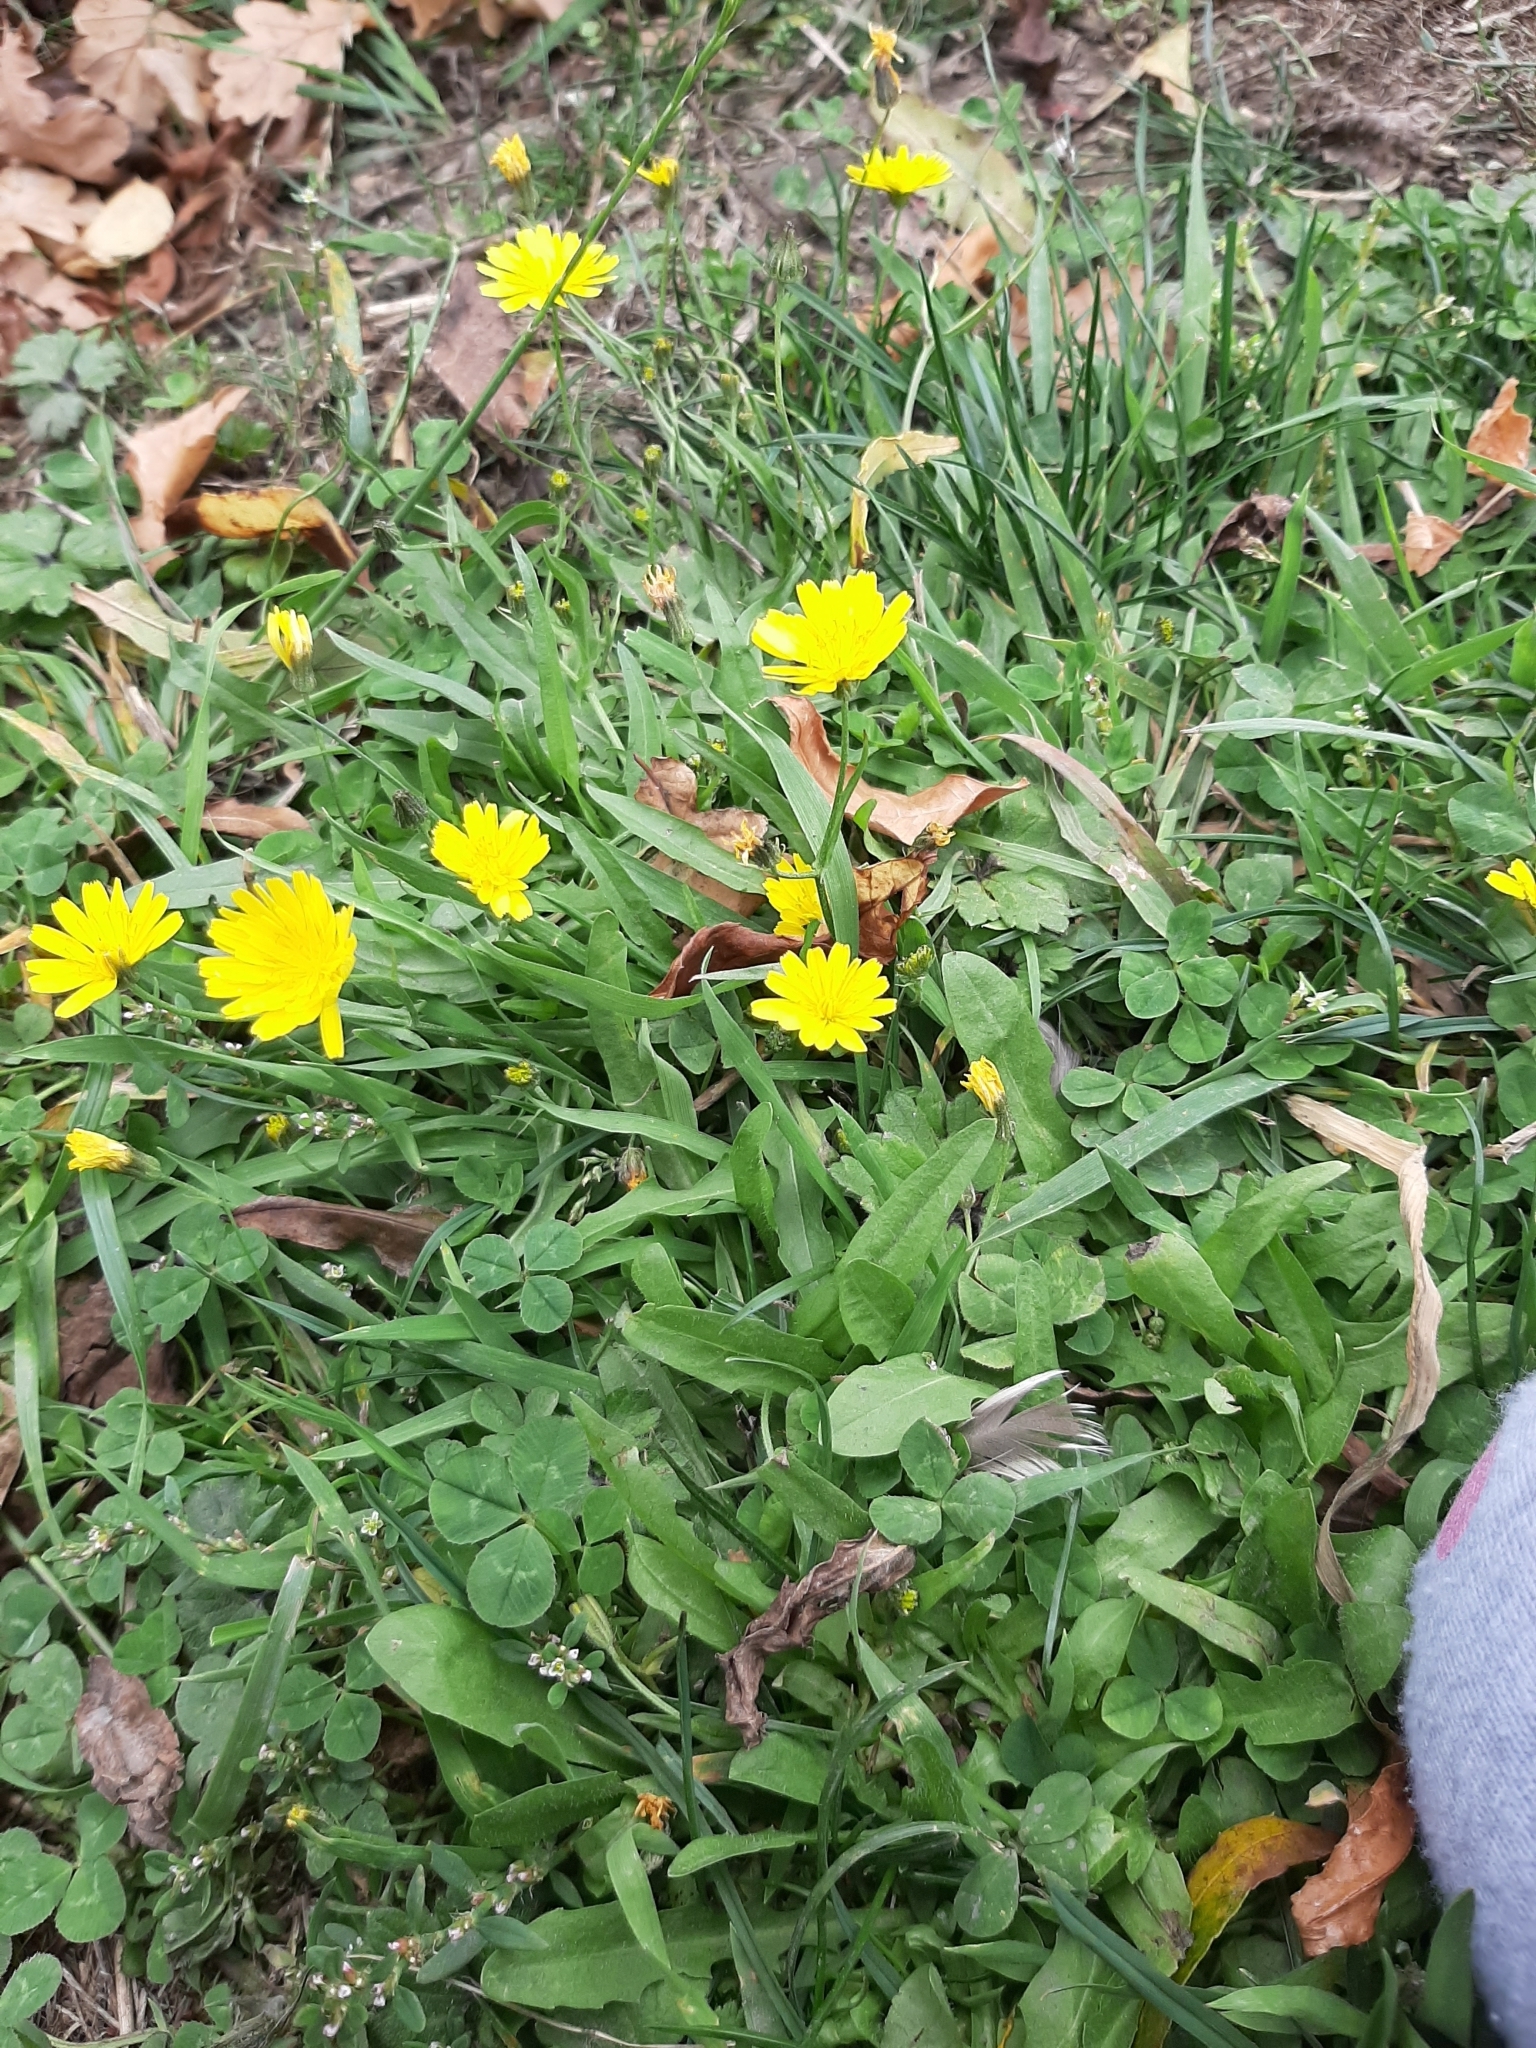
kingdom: Plantae
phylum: Tracheophyta
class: Magnoliopsida
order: Asterales
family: Asteraceae
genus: Crepis
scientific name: Crepis capillaris
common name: Smooth hawksbeard
